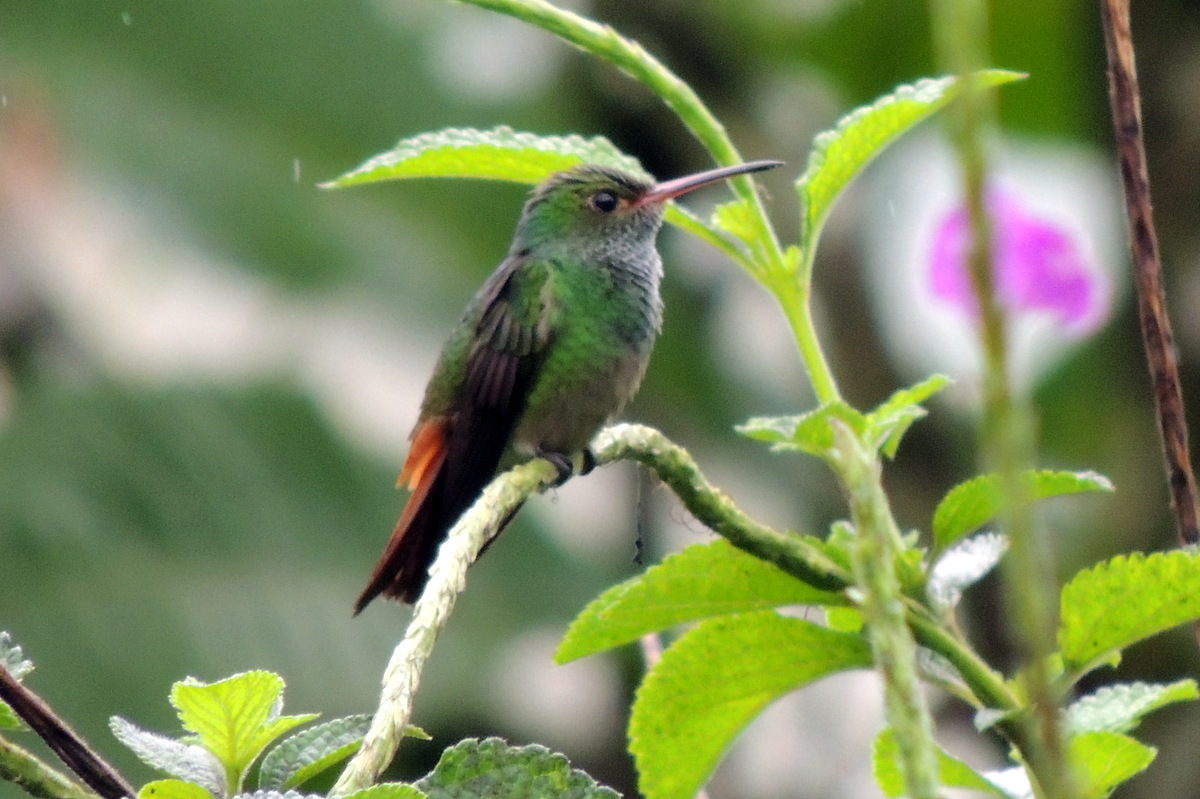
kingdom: Animalia
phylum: Chordata
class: Aves
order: Apodiformes
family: Trochilidae
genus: Amazilia
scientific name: Amazilia tzacatl
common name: Rufous-tailed hummingbird
